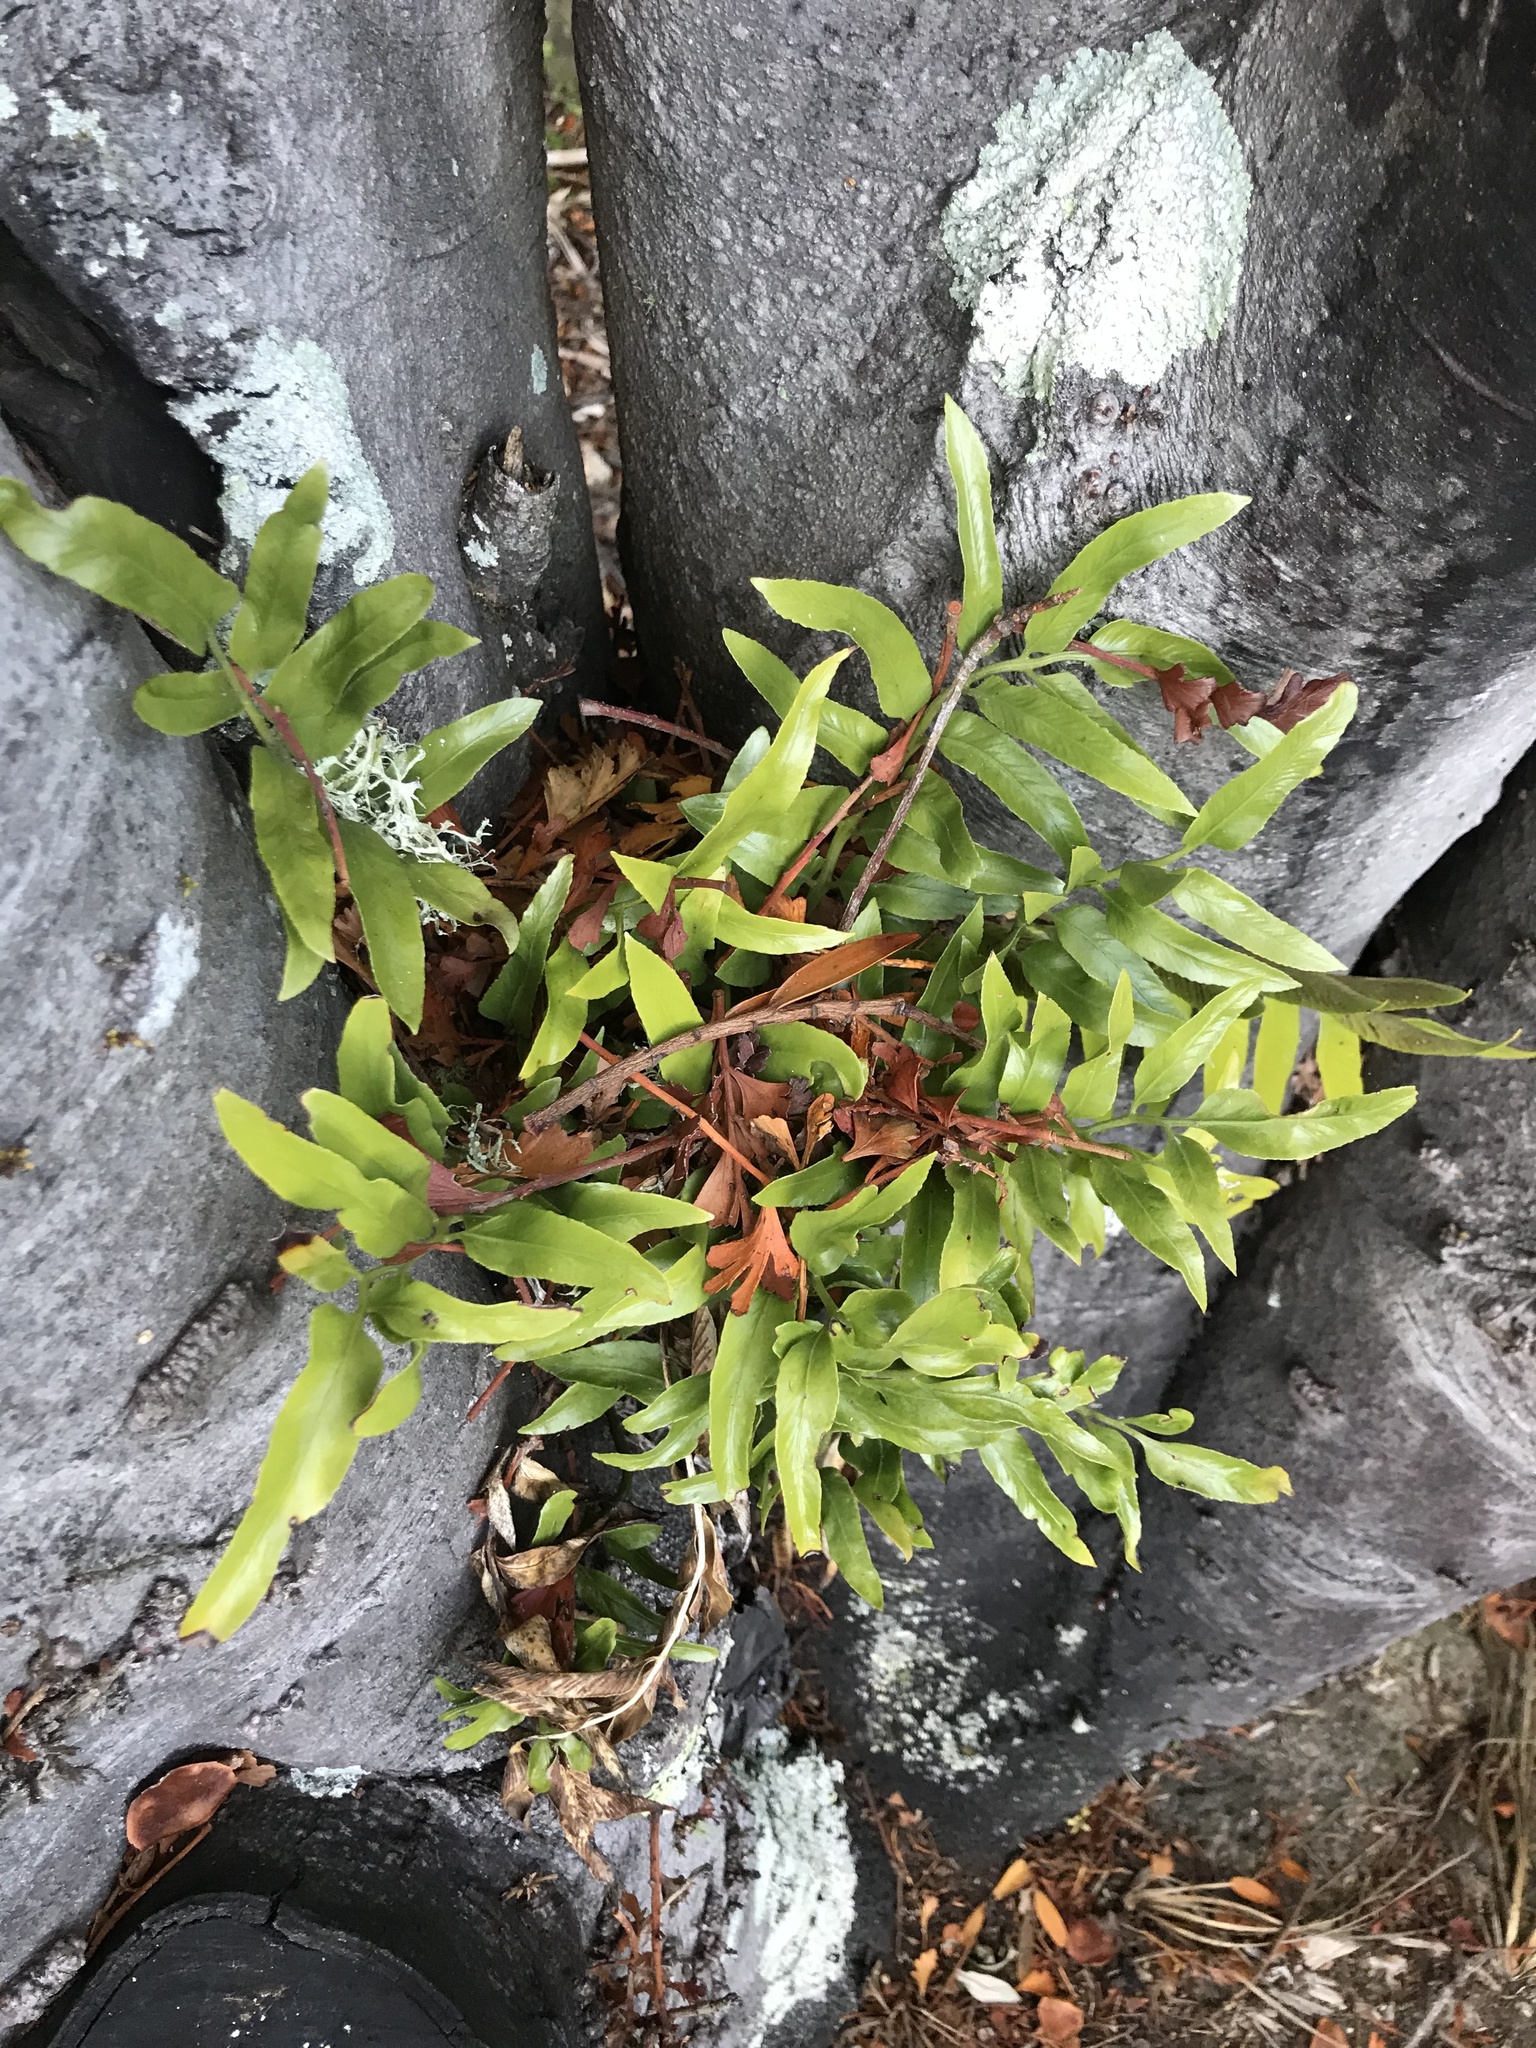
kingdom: Plantae
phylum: Tracheophyta
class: Polypodiopsida
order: Polypodiales
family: Aspleniaceae
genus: Asplenium
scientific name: Asplenium oblongifolium
